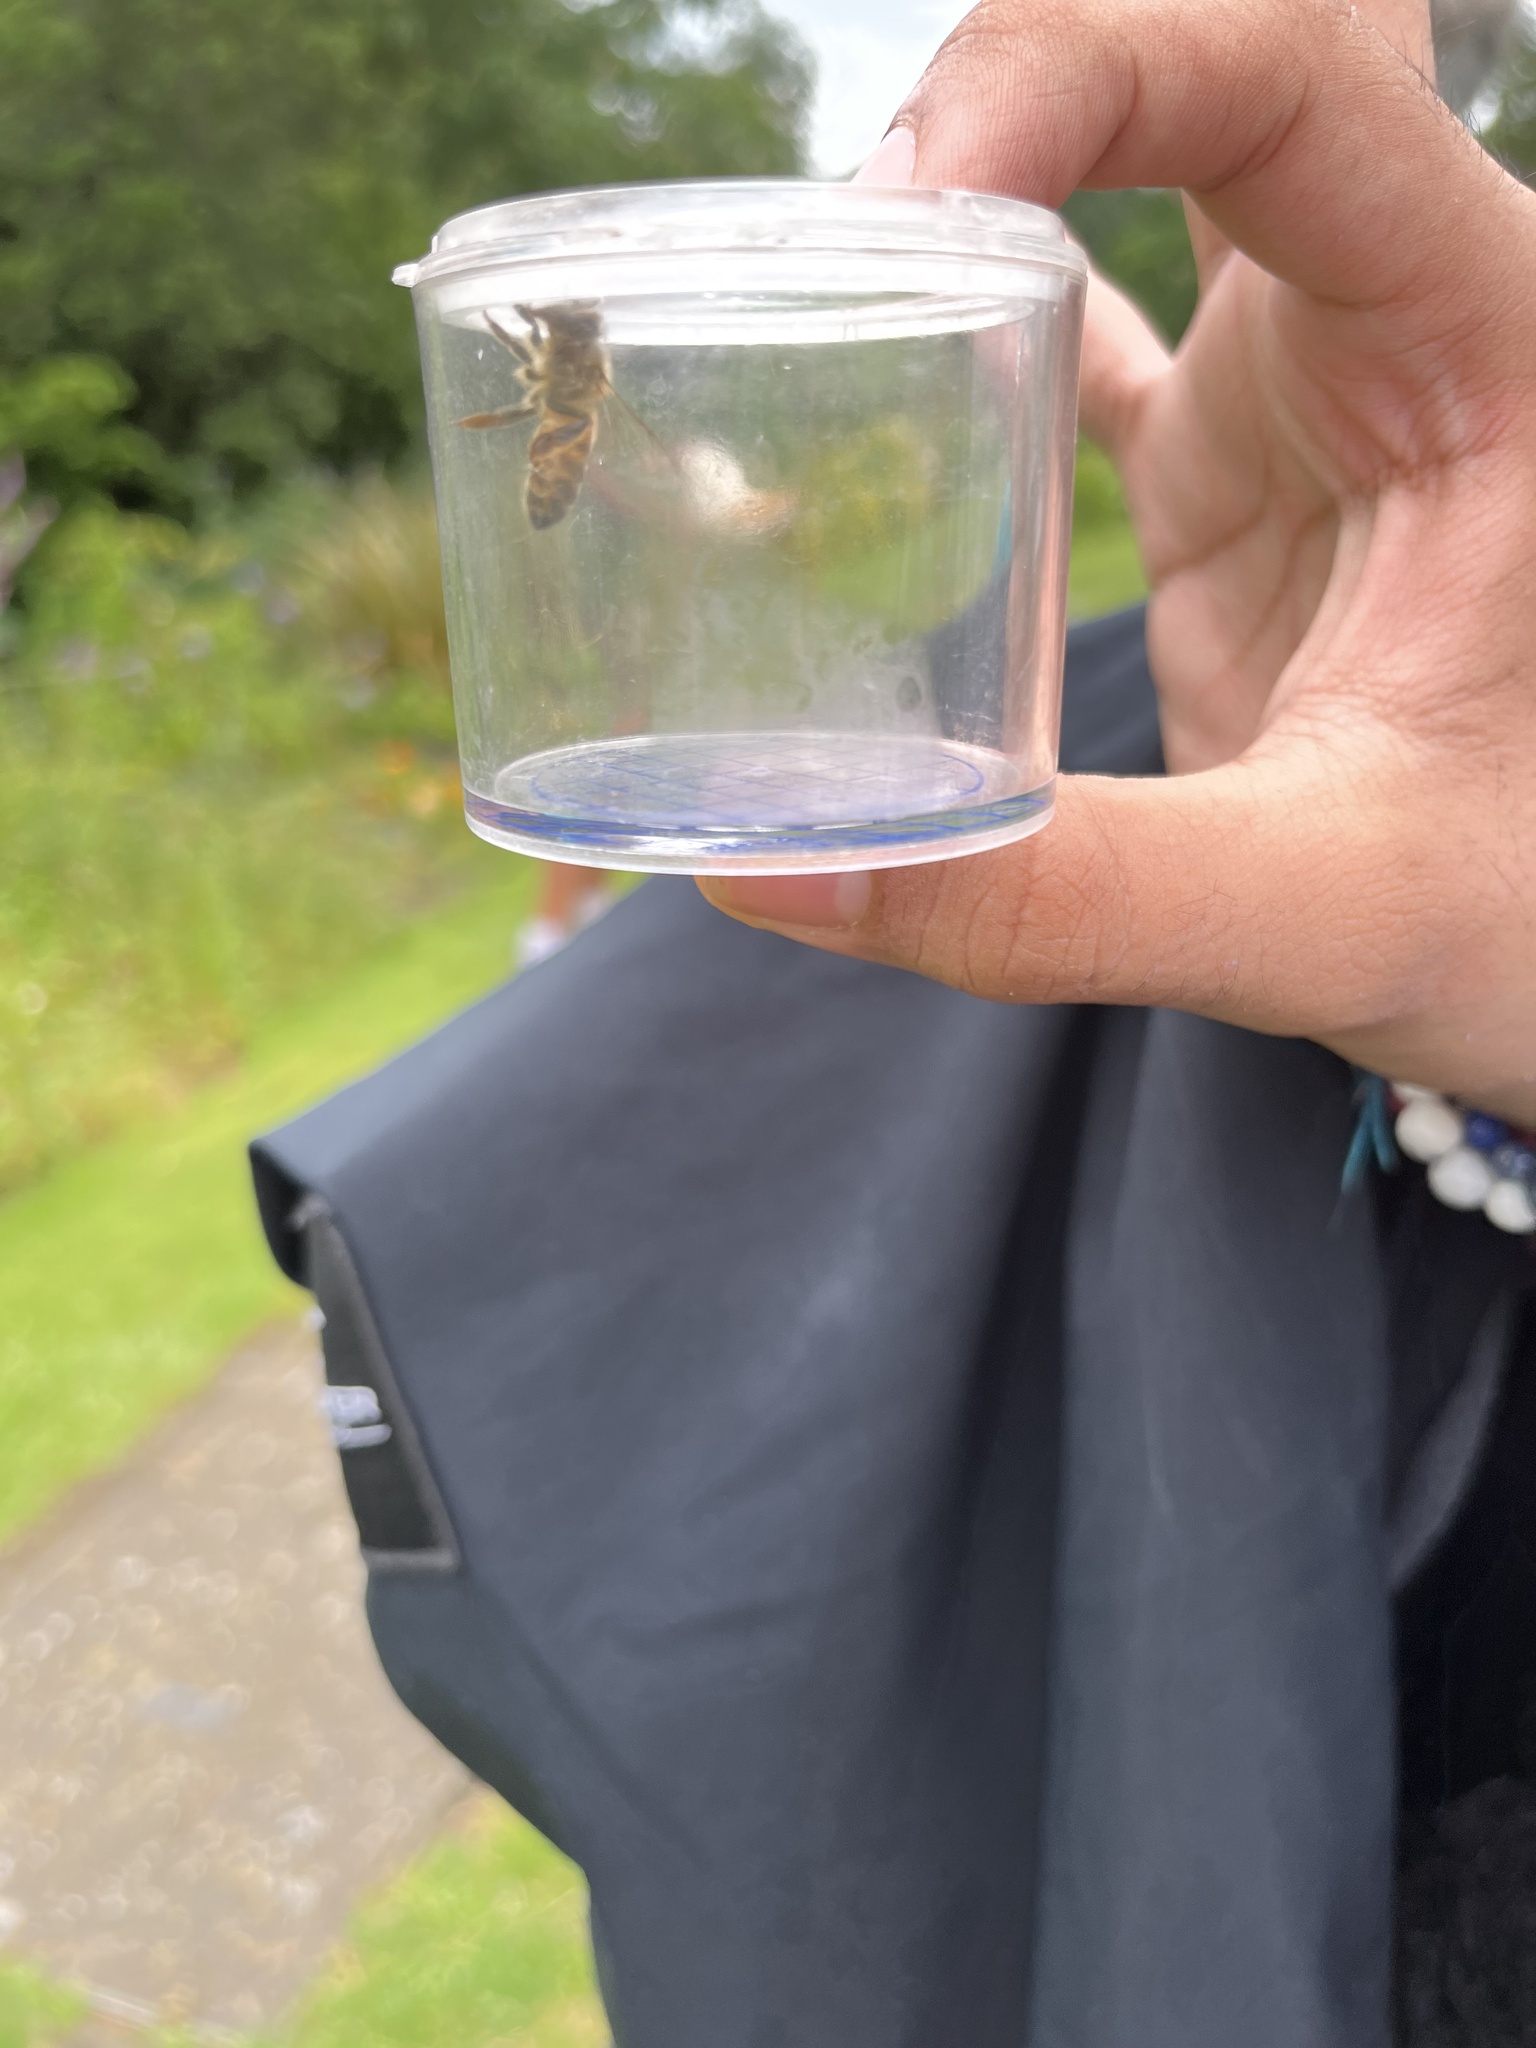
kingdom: Animalia
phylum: Arthropoda
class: Insecta
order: Hymenoptera
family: Apidae
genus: Apis
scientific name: Apis mellifera
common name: Honey bee
